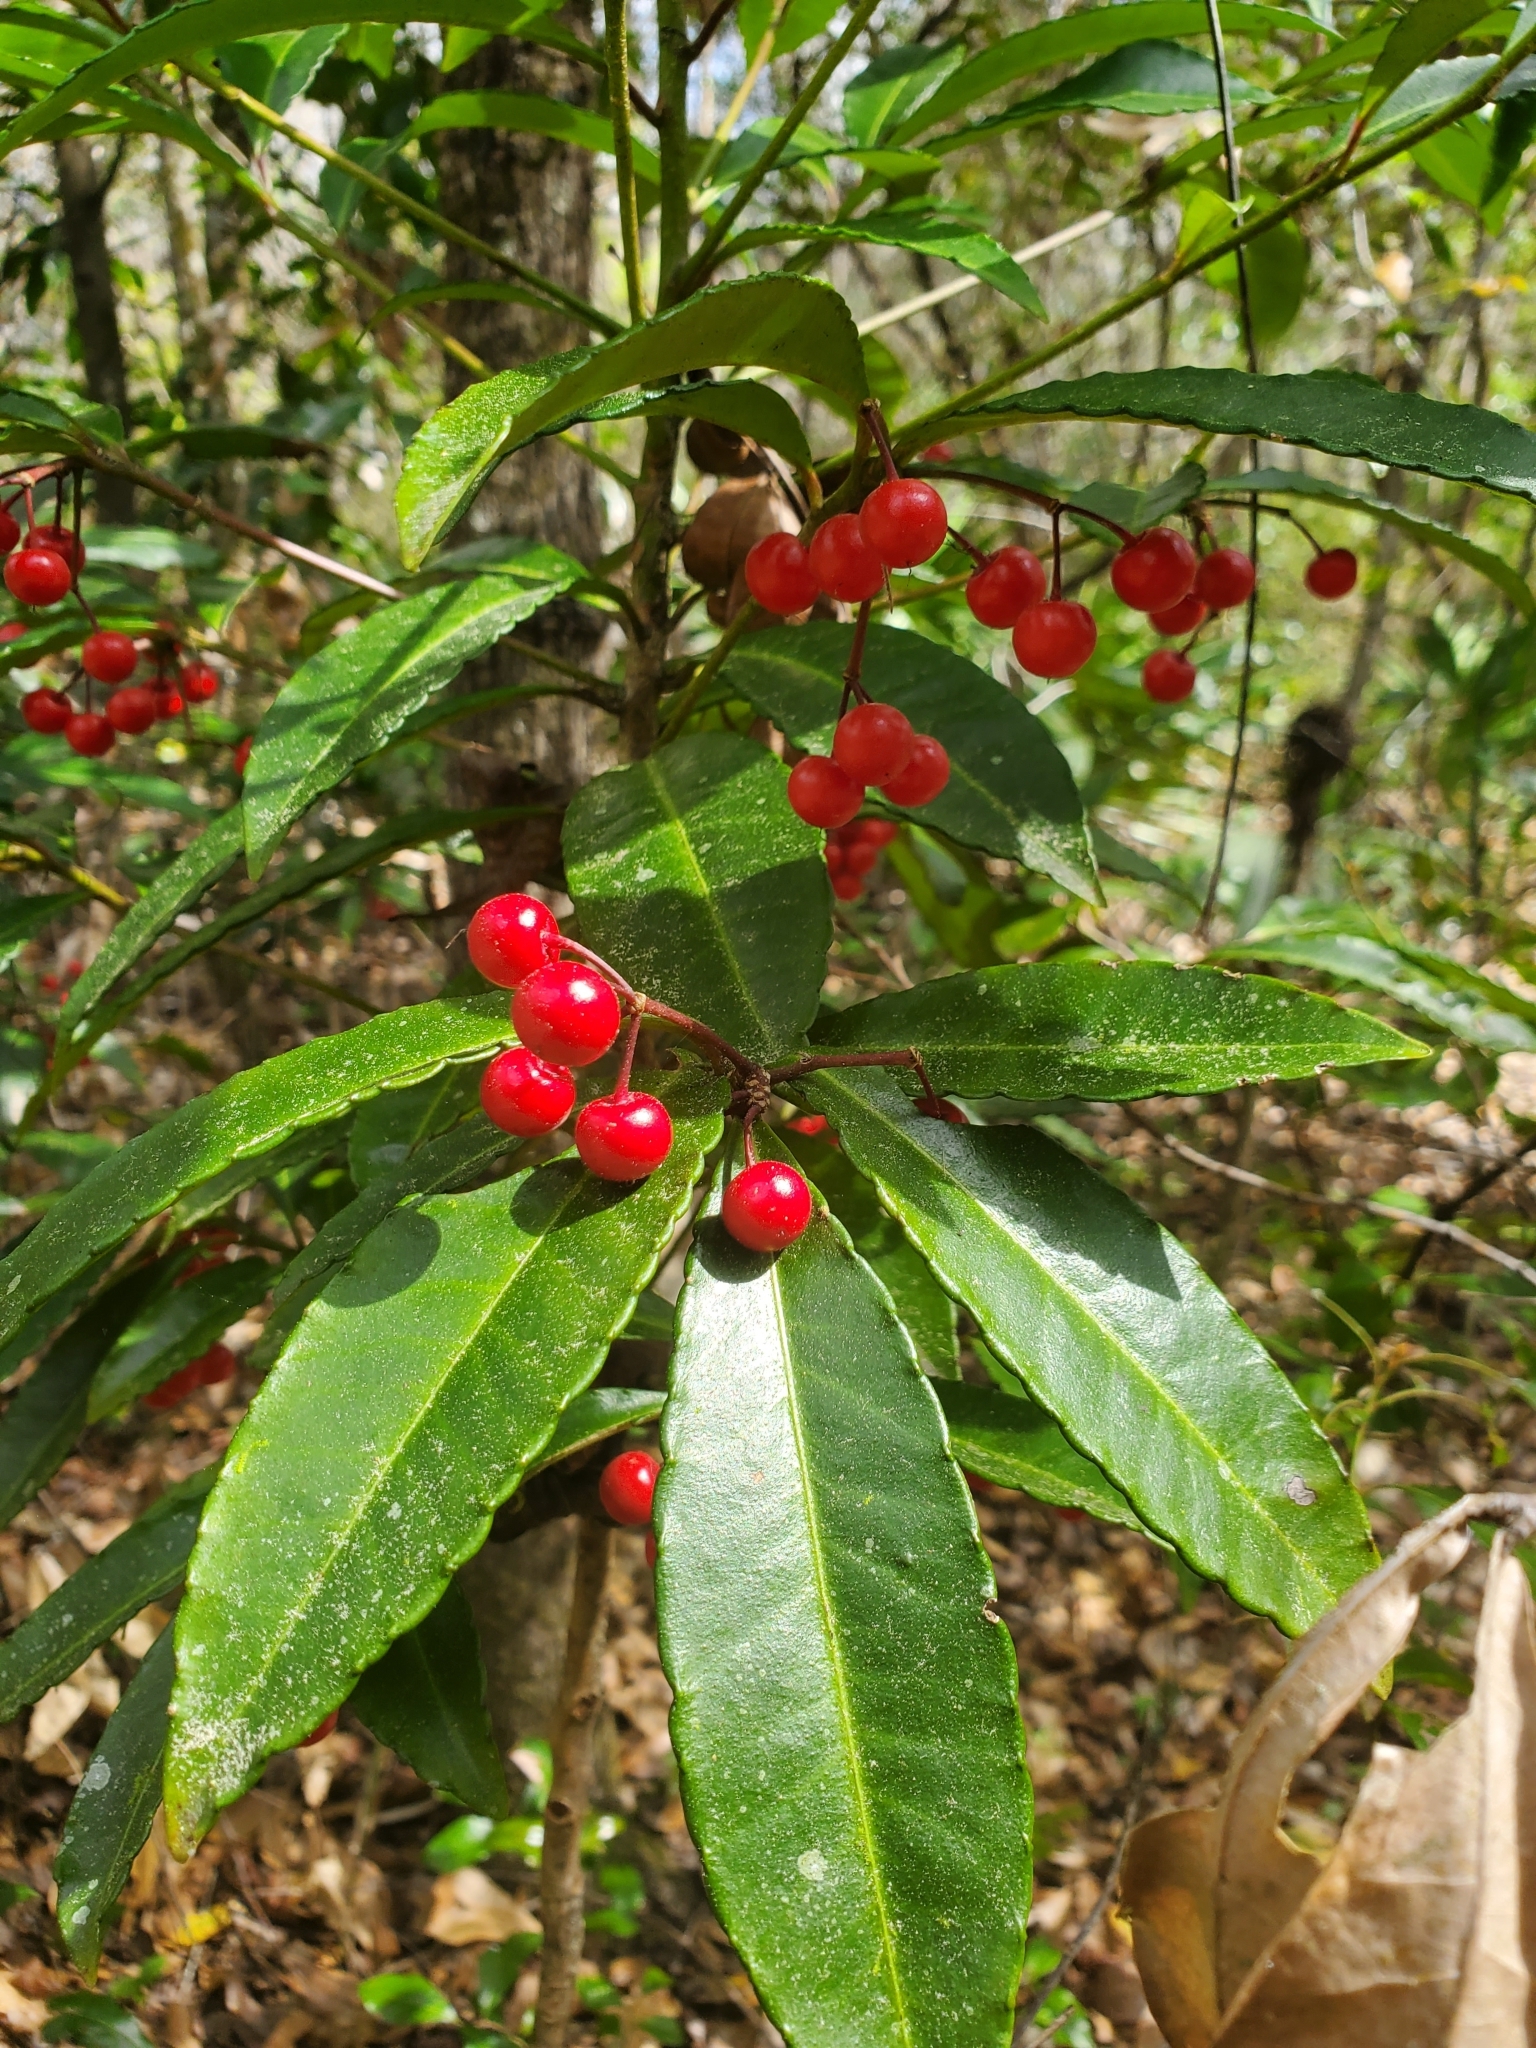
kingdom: Plantae
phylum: Tracheophyta
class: Magnoliopsida
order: Ericales
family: Primulaceae
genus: Ardisia
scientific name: Ardisia crenata
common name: Hen's eyes
